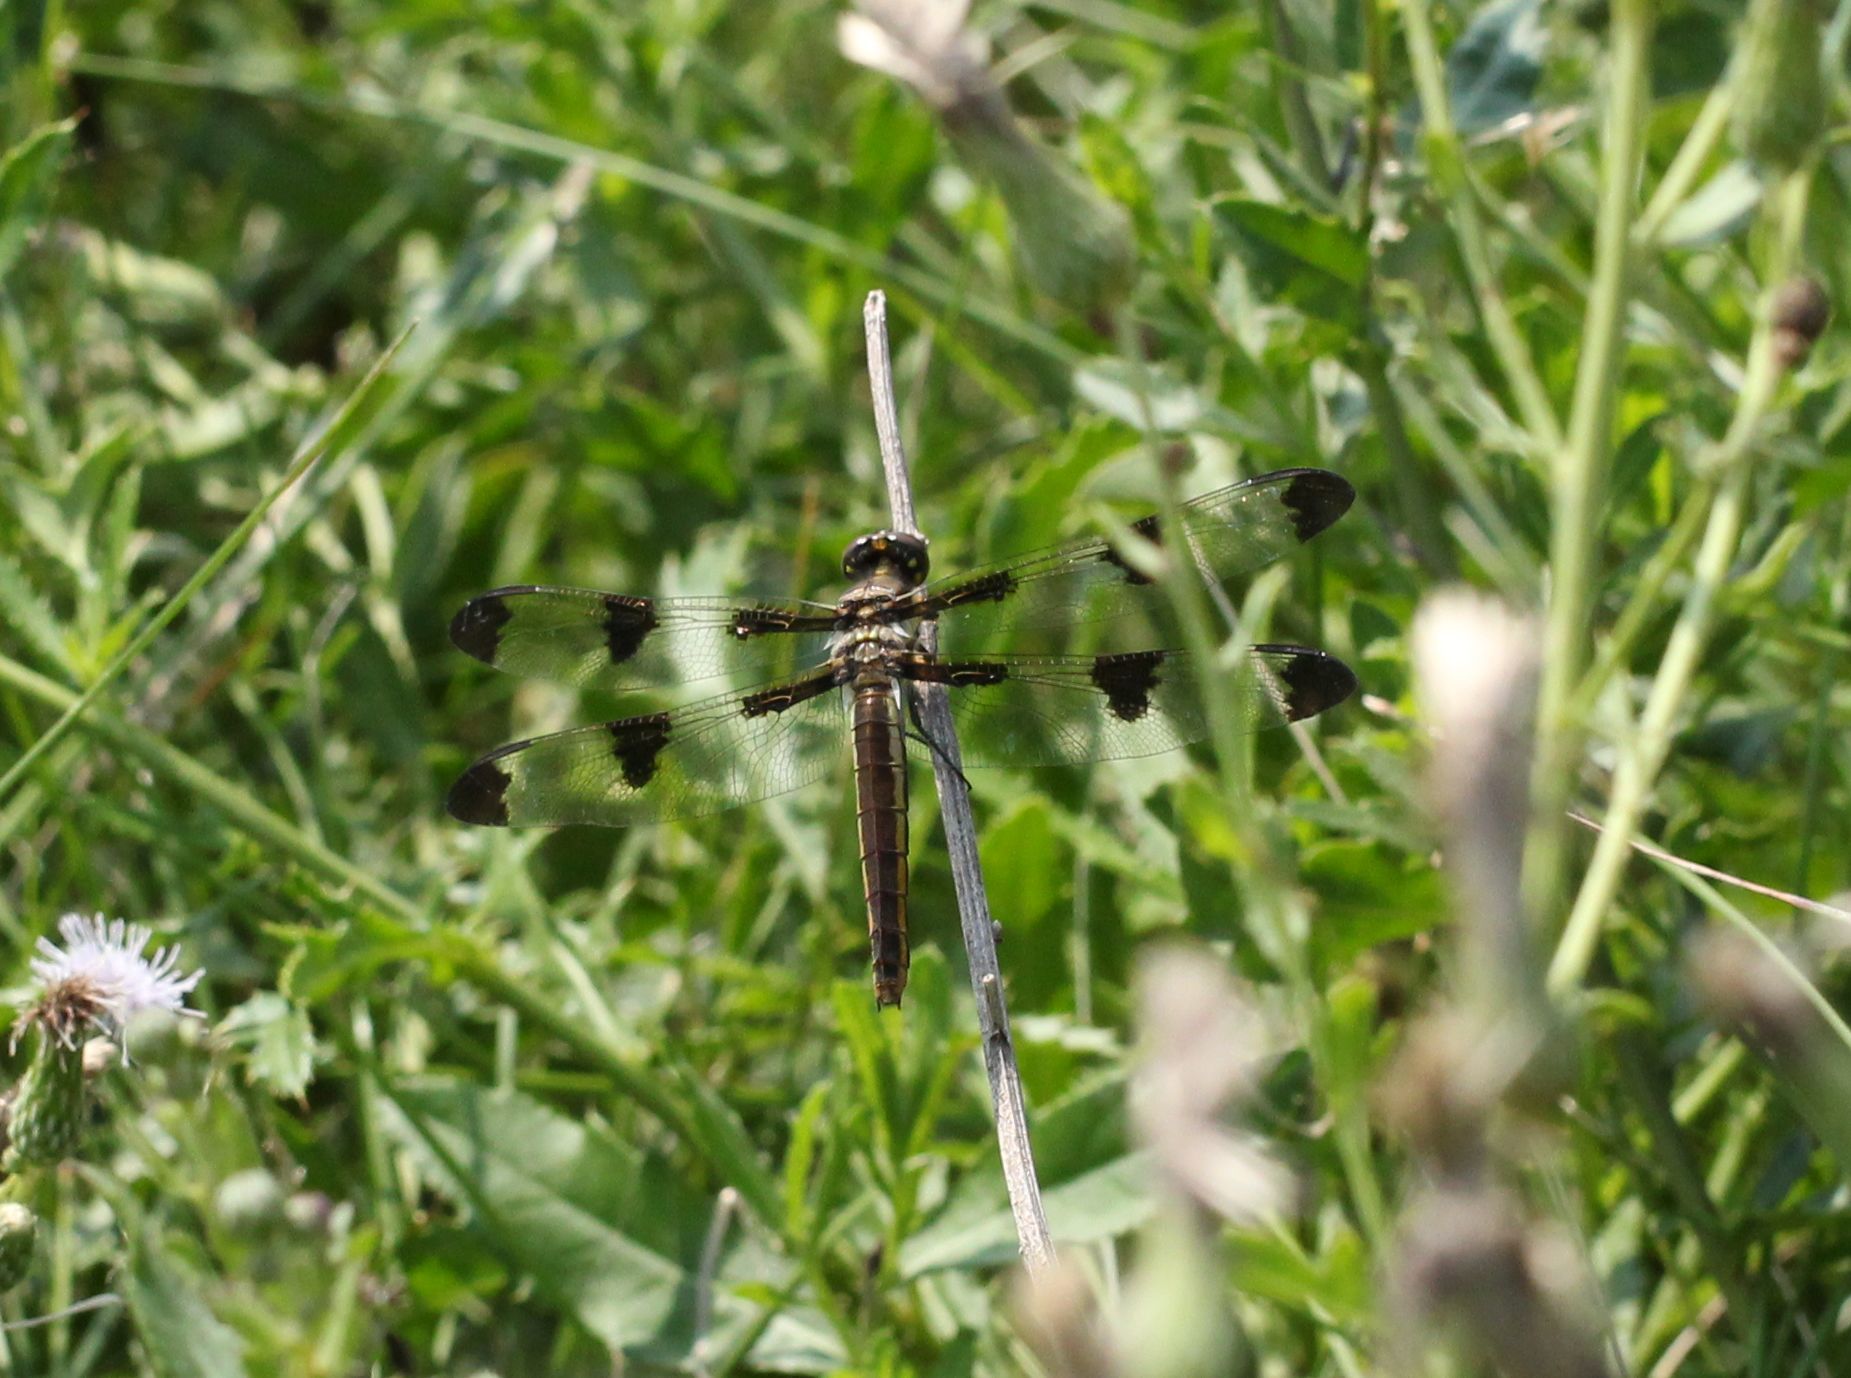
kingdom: Animalia
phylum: Arthropoda
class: Insecta
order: Odonata
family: Libellulidae
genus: Libellula
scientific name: Libellula pulchella
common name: Twelve-spotted skimmer
